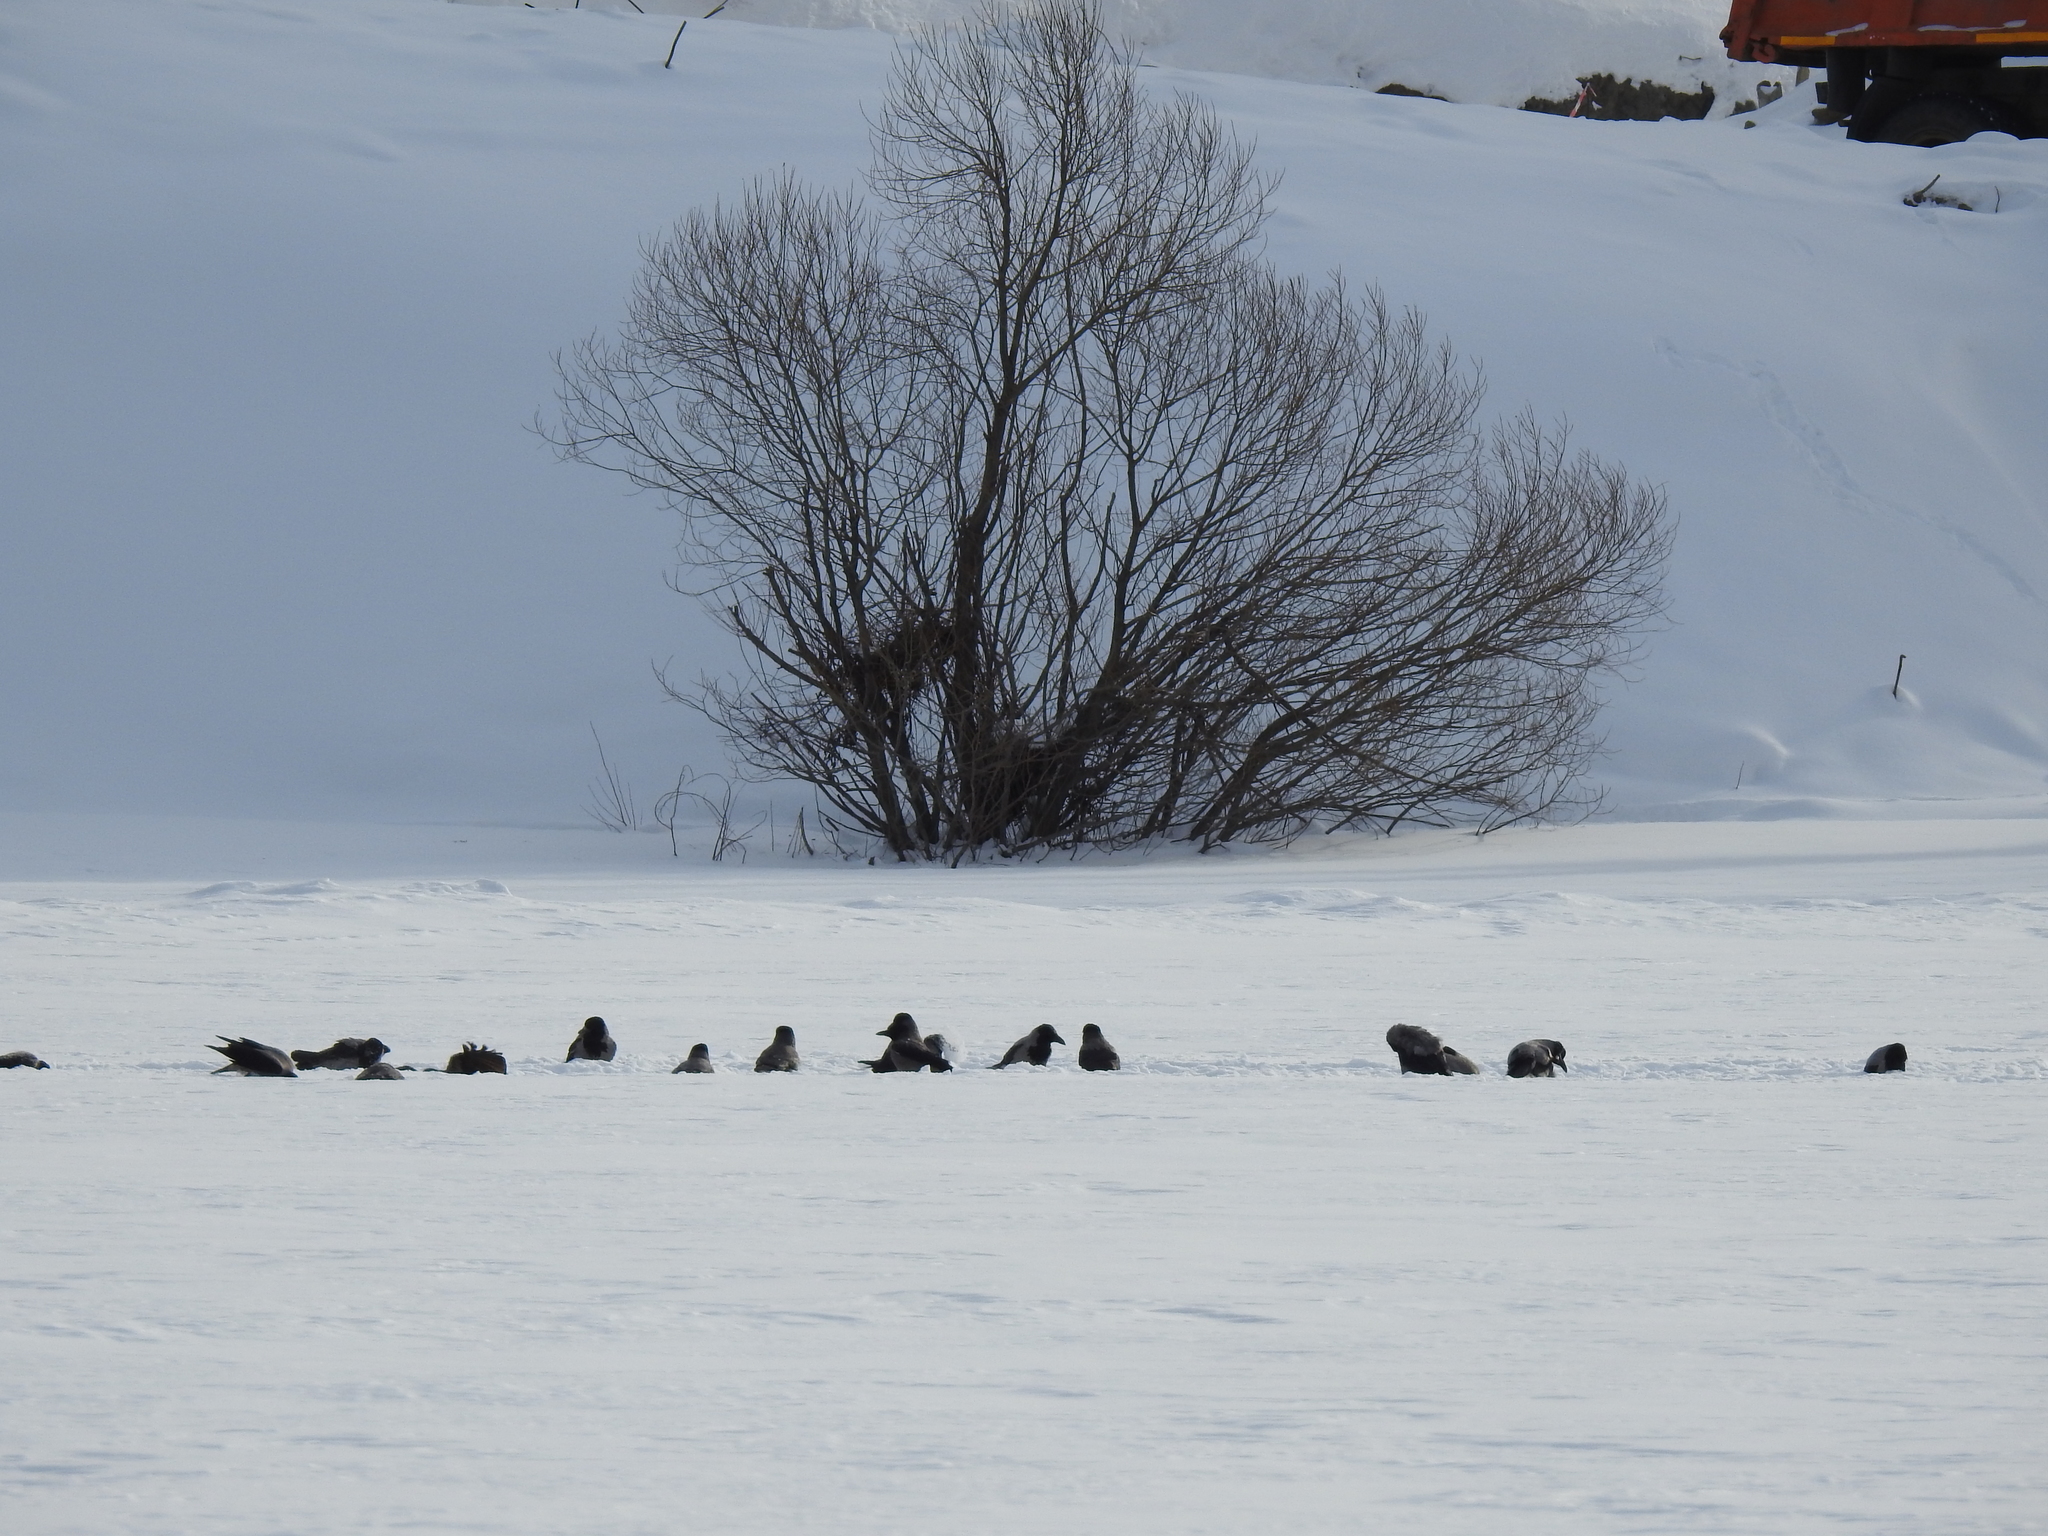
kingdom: Animalia
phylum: Chordata
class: Aves
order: Passeriformes
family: Corvidae
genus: Corvus
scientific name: Corvus cornix
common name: Hooded crow
